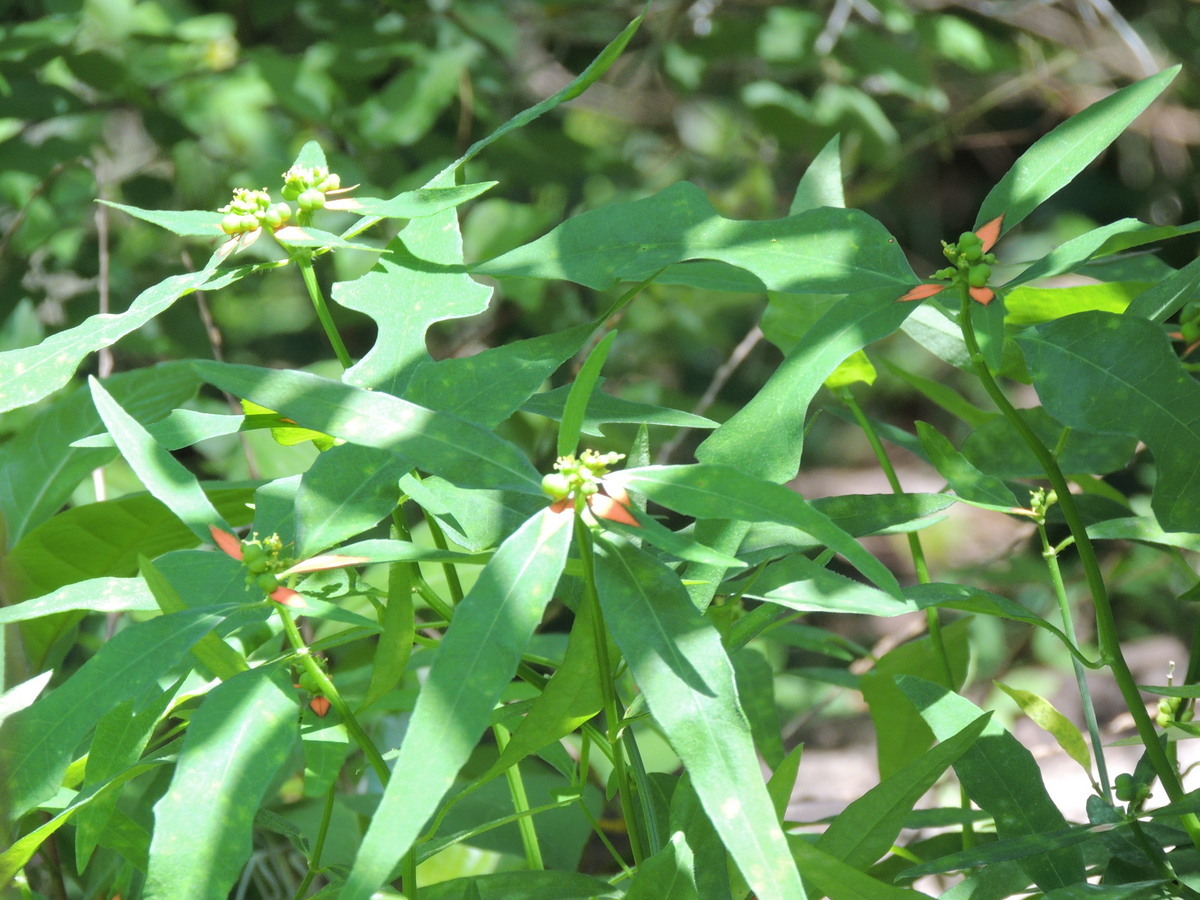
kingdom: Plantae
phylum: Tracheophyta
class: Magnoliopsida
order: Malpighiales
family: Euphorbiaceae
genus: Euphorbia
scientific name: Euphorbia heterophylla
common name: Mexican fireplant
